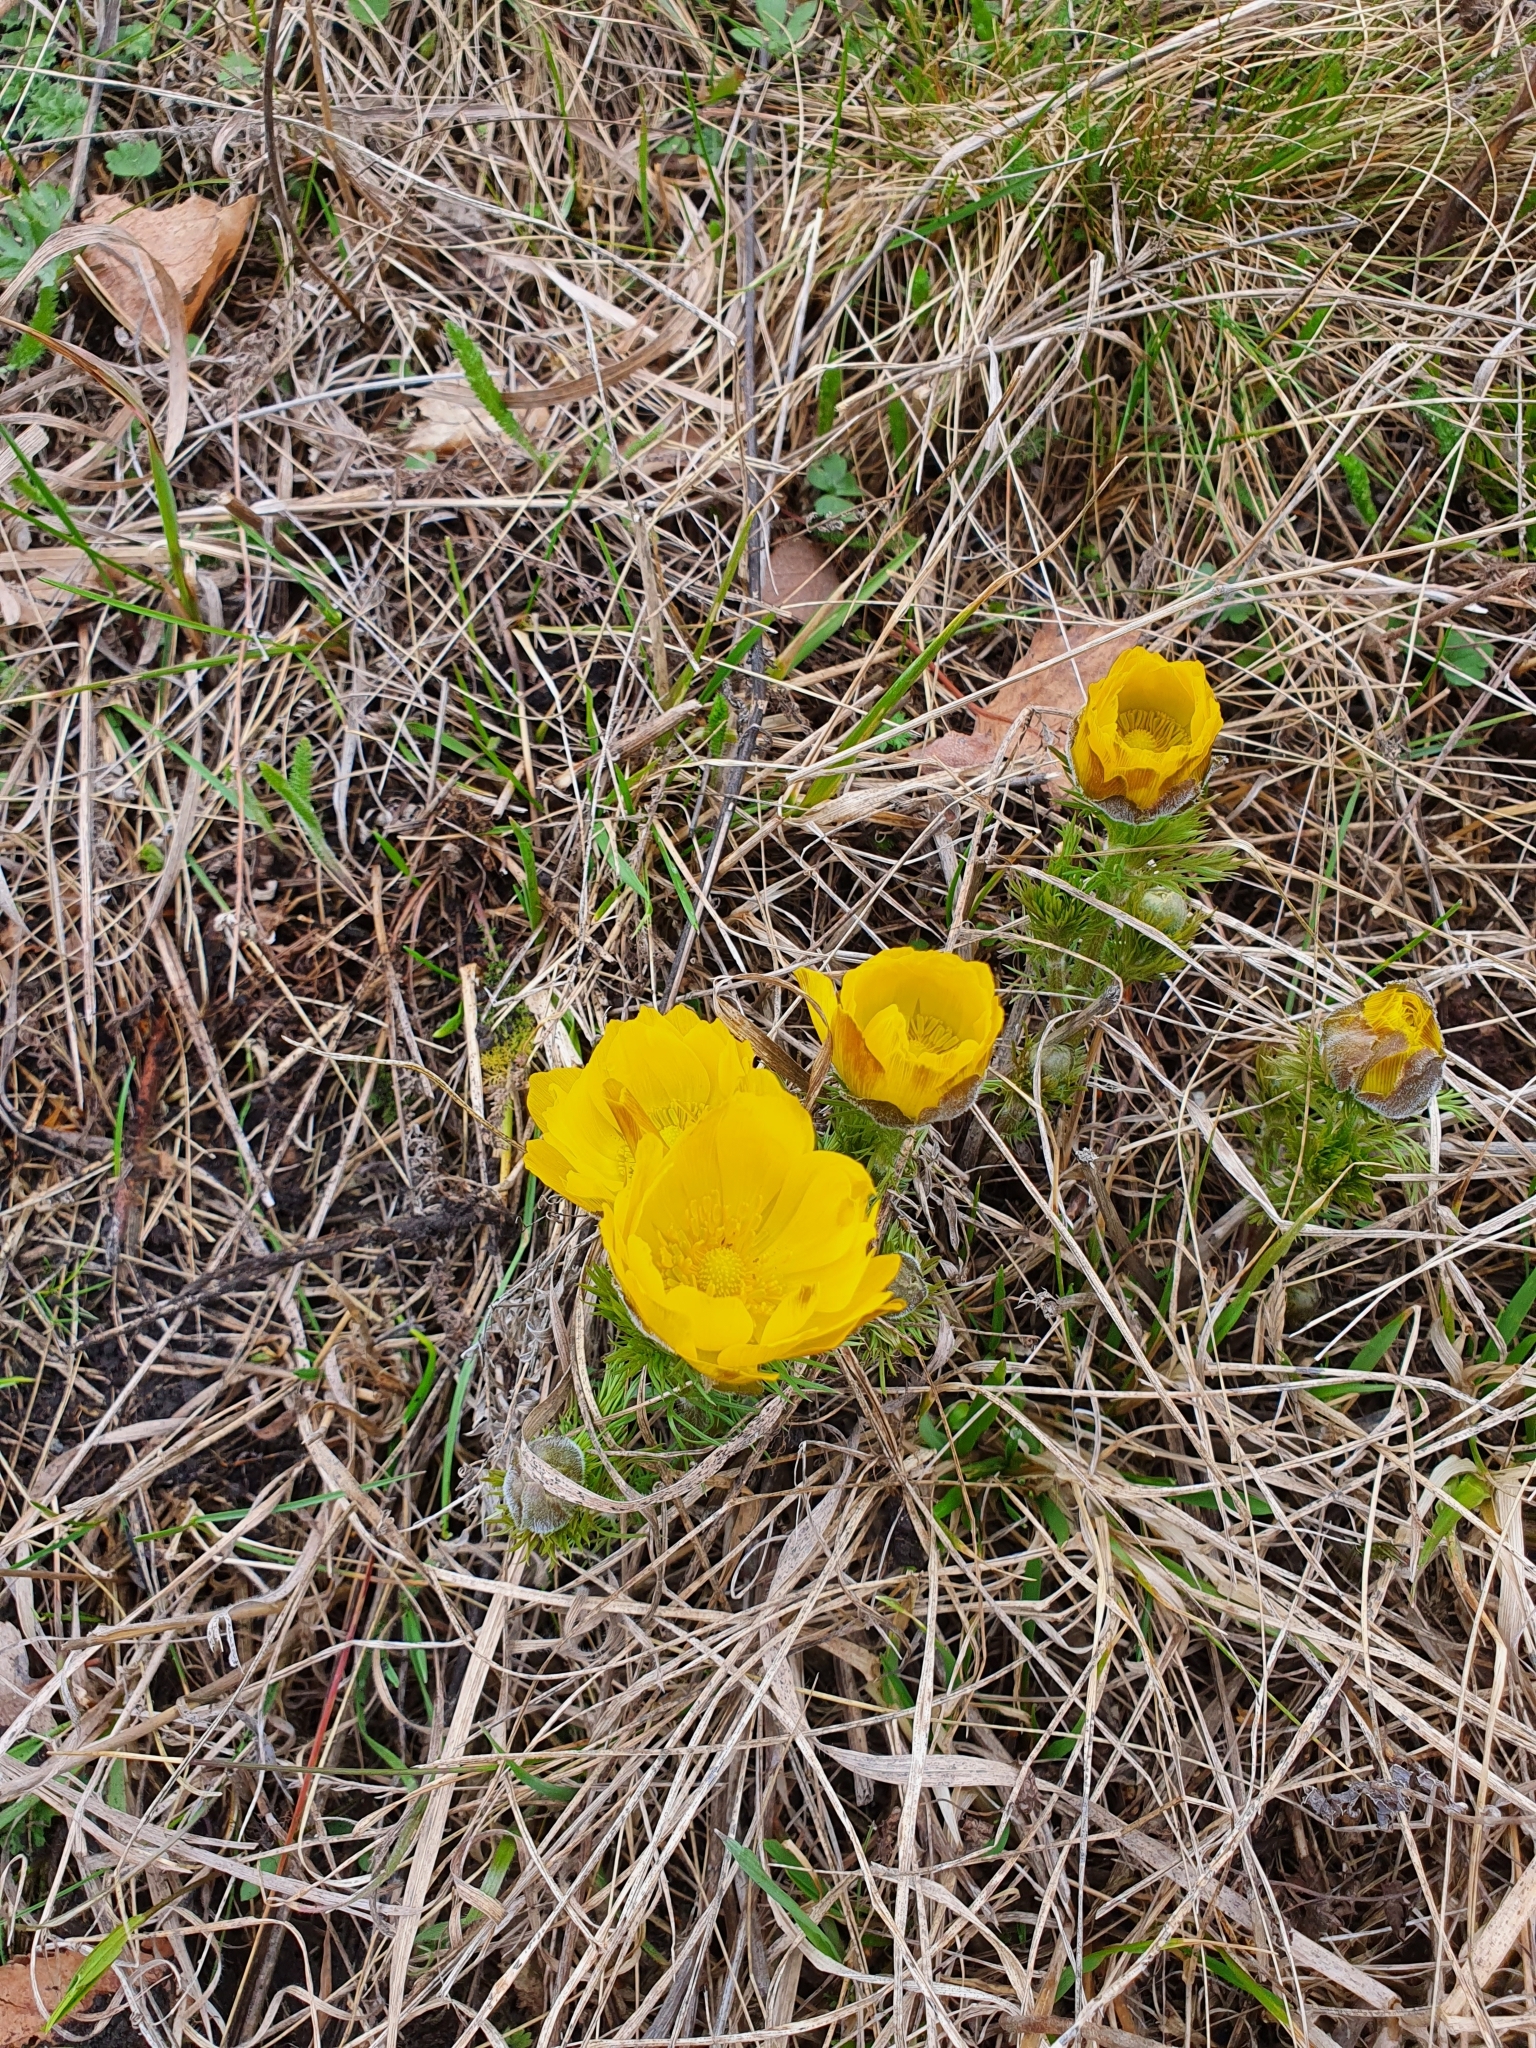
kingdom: Plantae
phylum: Tracheophyta
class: Magnoliopsida
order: Ranunculales
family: Ranunculaceae
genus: Adonis
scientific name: Adonis vernalis
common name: Yellow pheasants-eye
